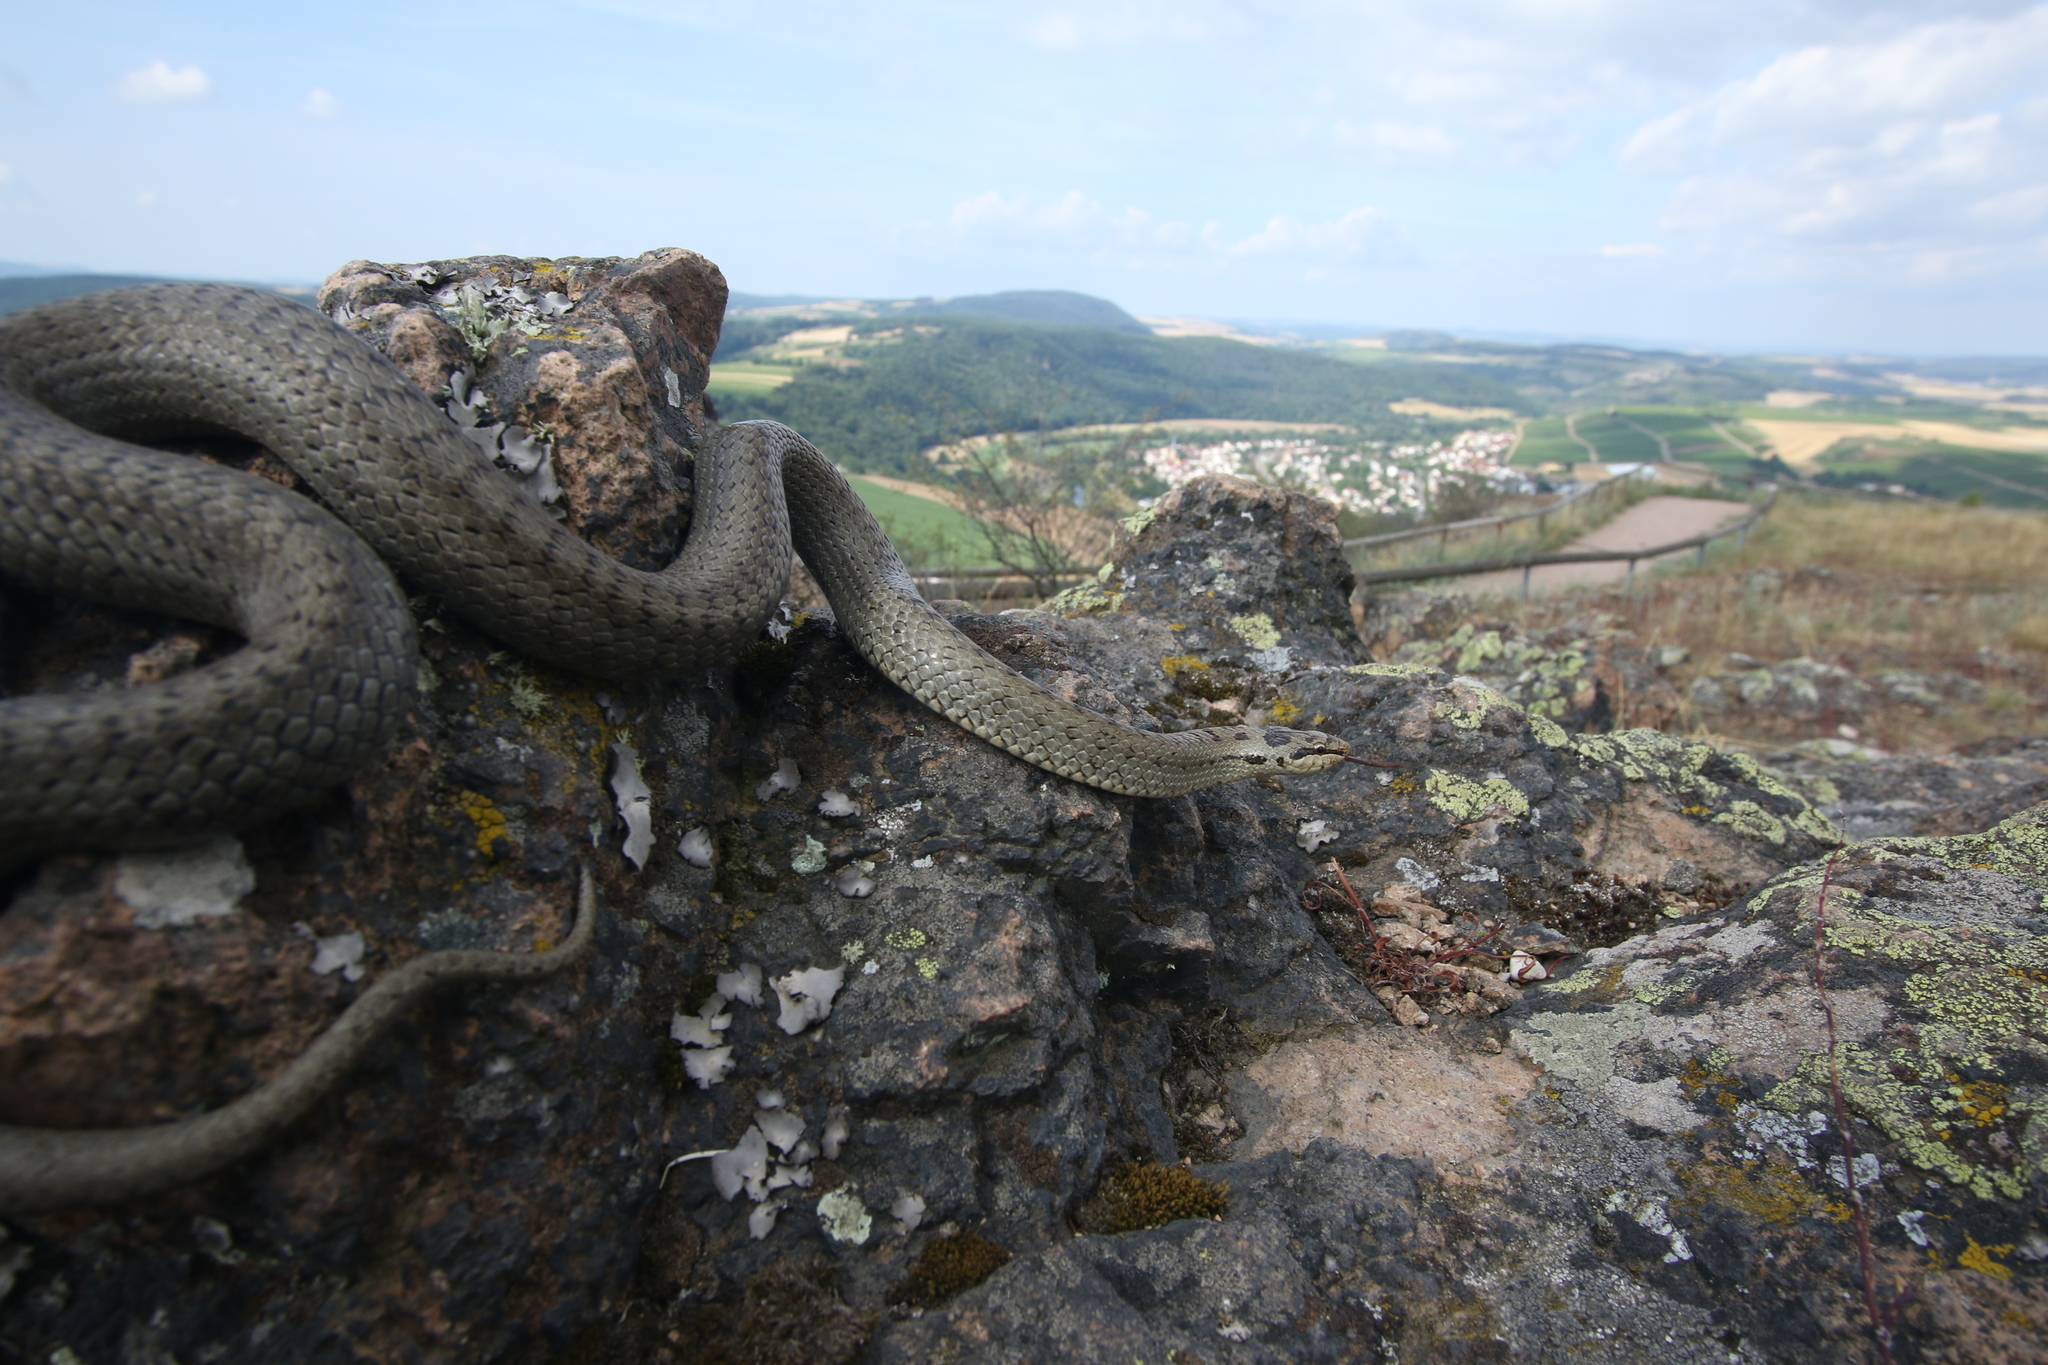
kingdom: Animalia
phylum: Chordata
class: Squamata
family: Colubridae
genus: Coronella
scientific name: Coronella austriaca
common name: Smooth snake
